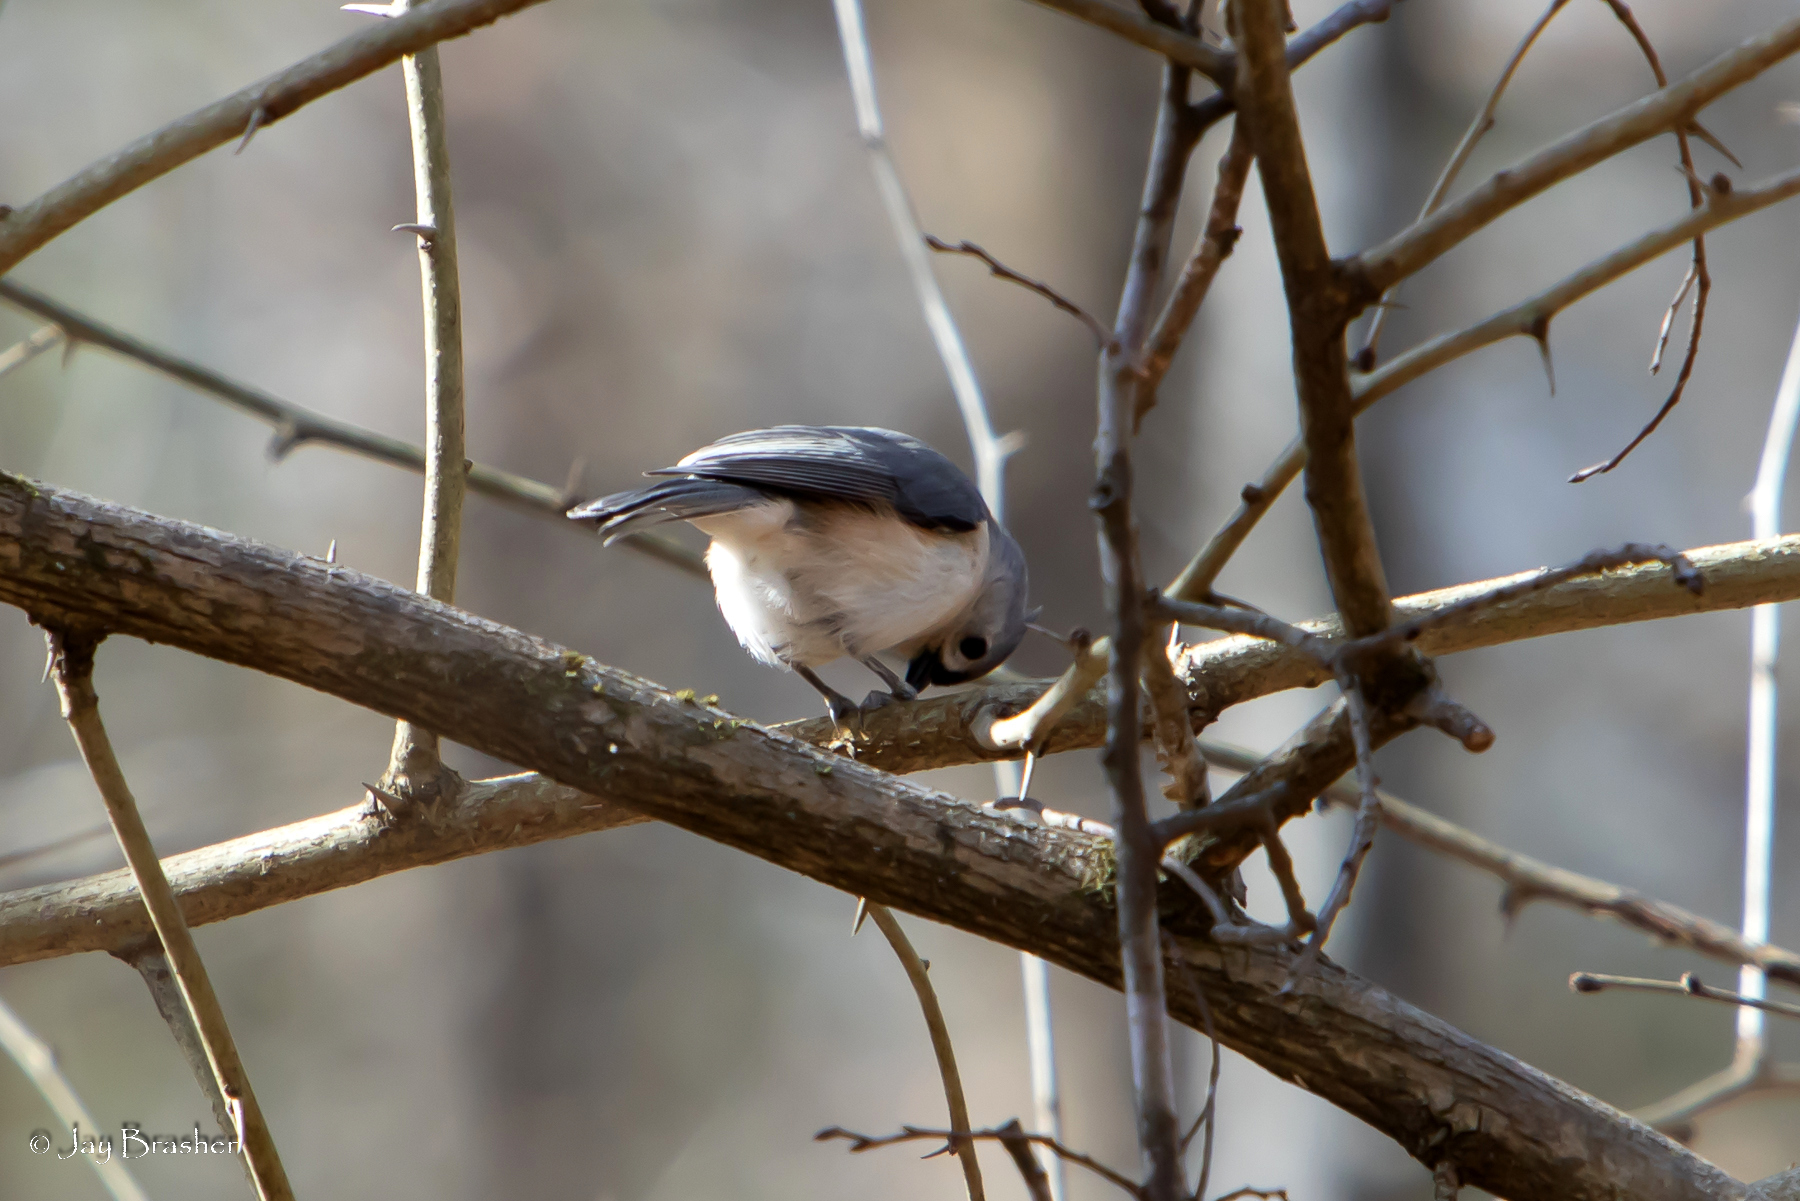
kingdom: Animalia
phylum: Chordata
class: Aves
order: Passeriformes
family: Paridae
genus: Baeolophus
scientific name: Baeolophus bicolor
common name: Tufted titmouse
